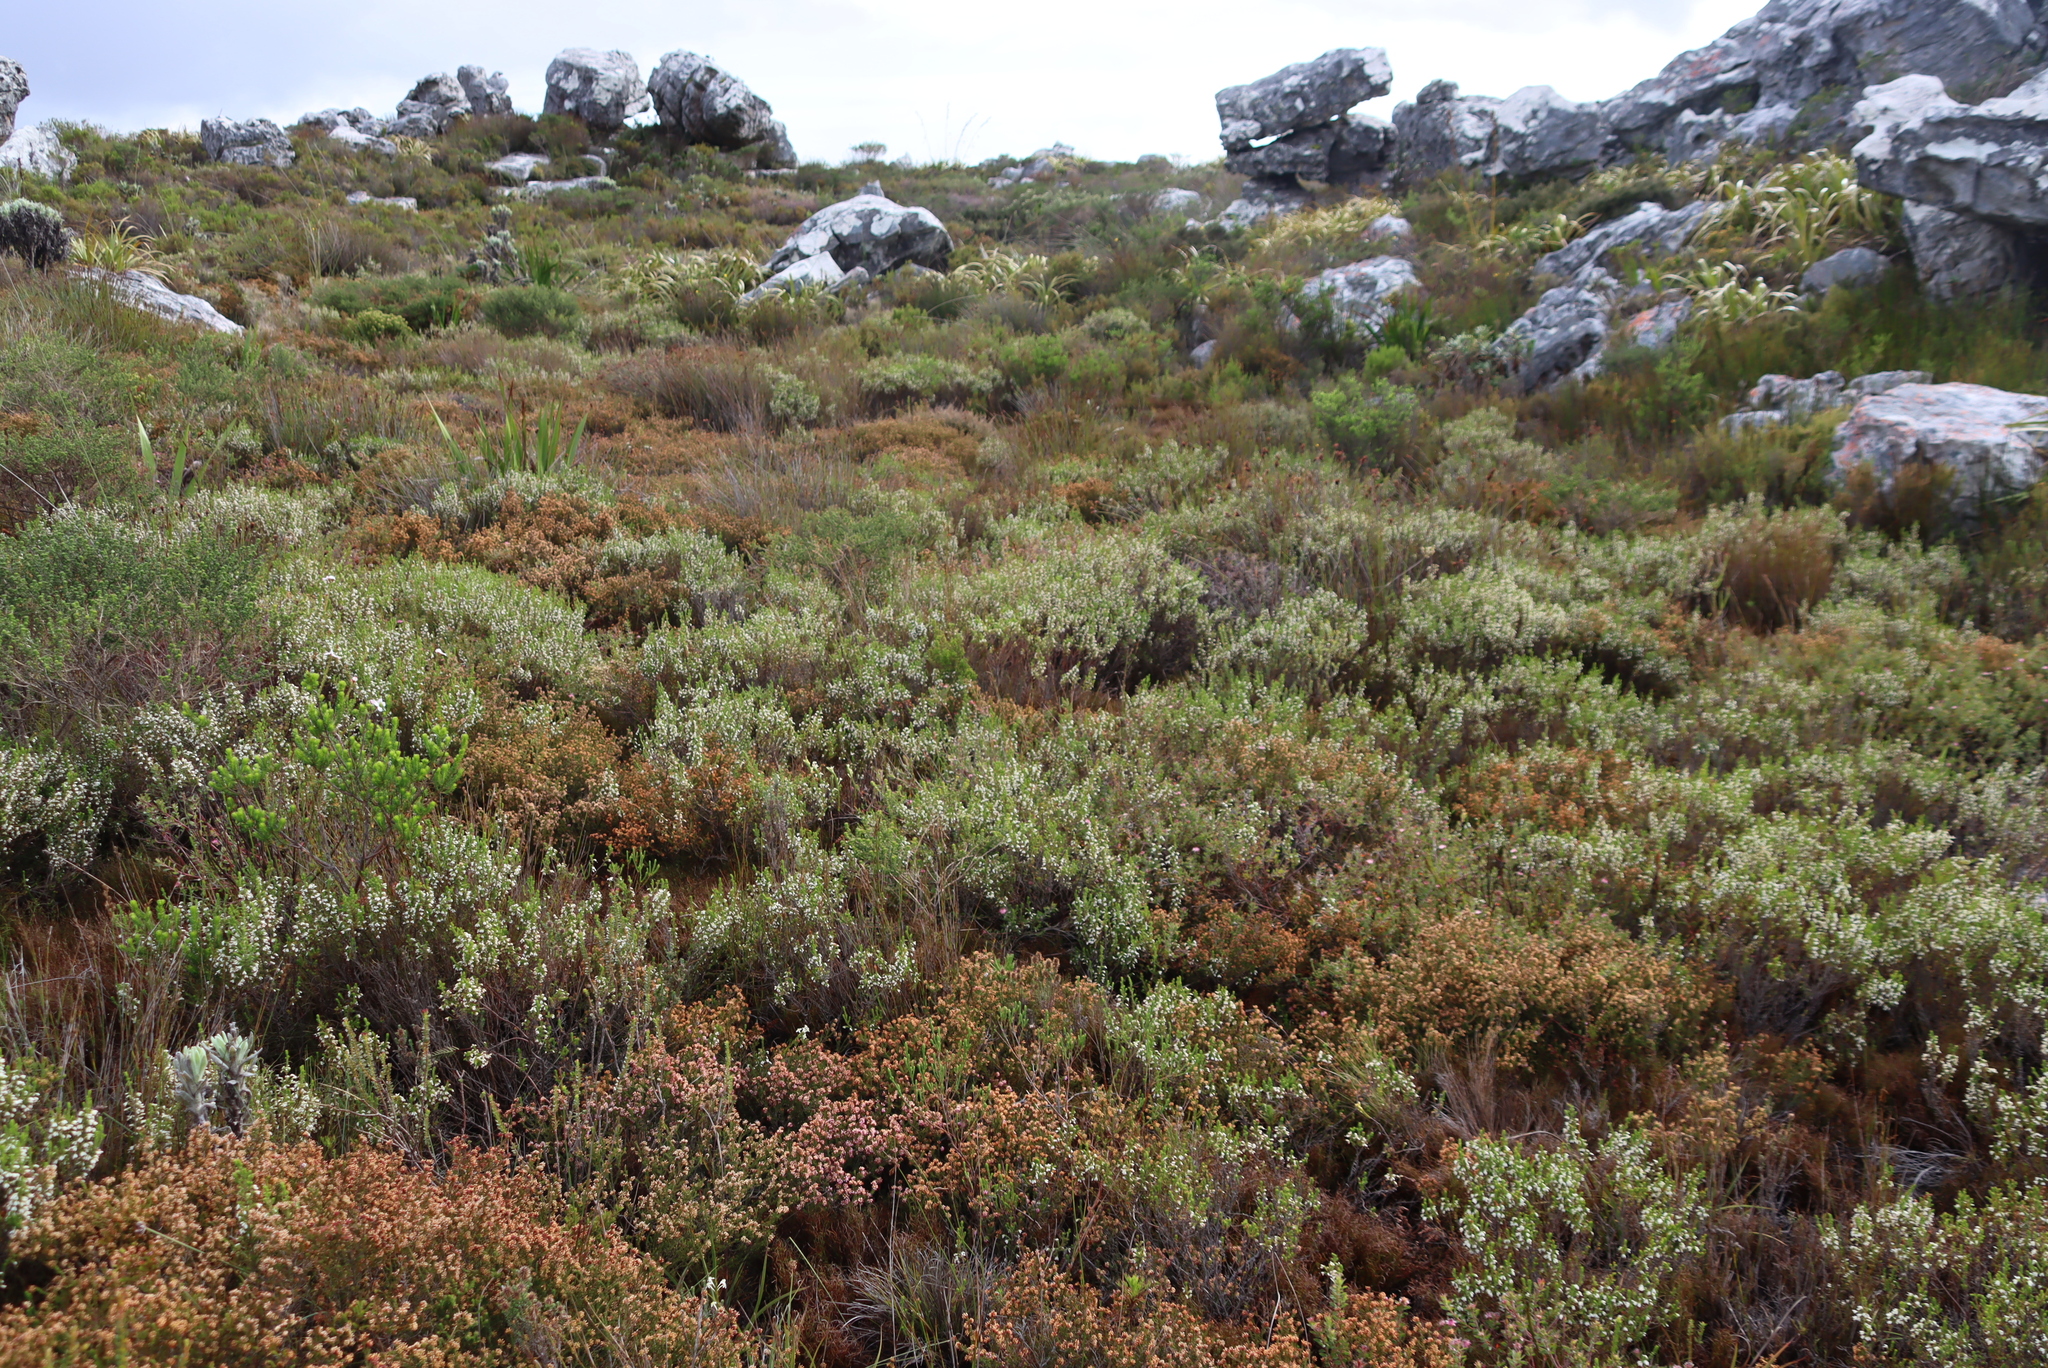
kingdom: Plantae
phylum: Tracheophyta
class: Magnoliopsida
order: Ericales
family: Ericaceae
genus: Erica
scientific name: Erica imbricata
